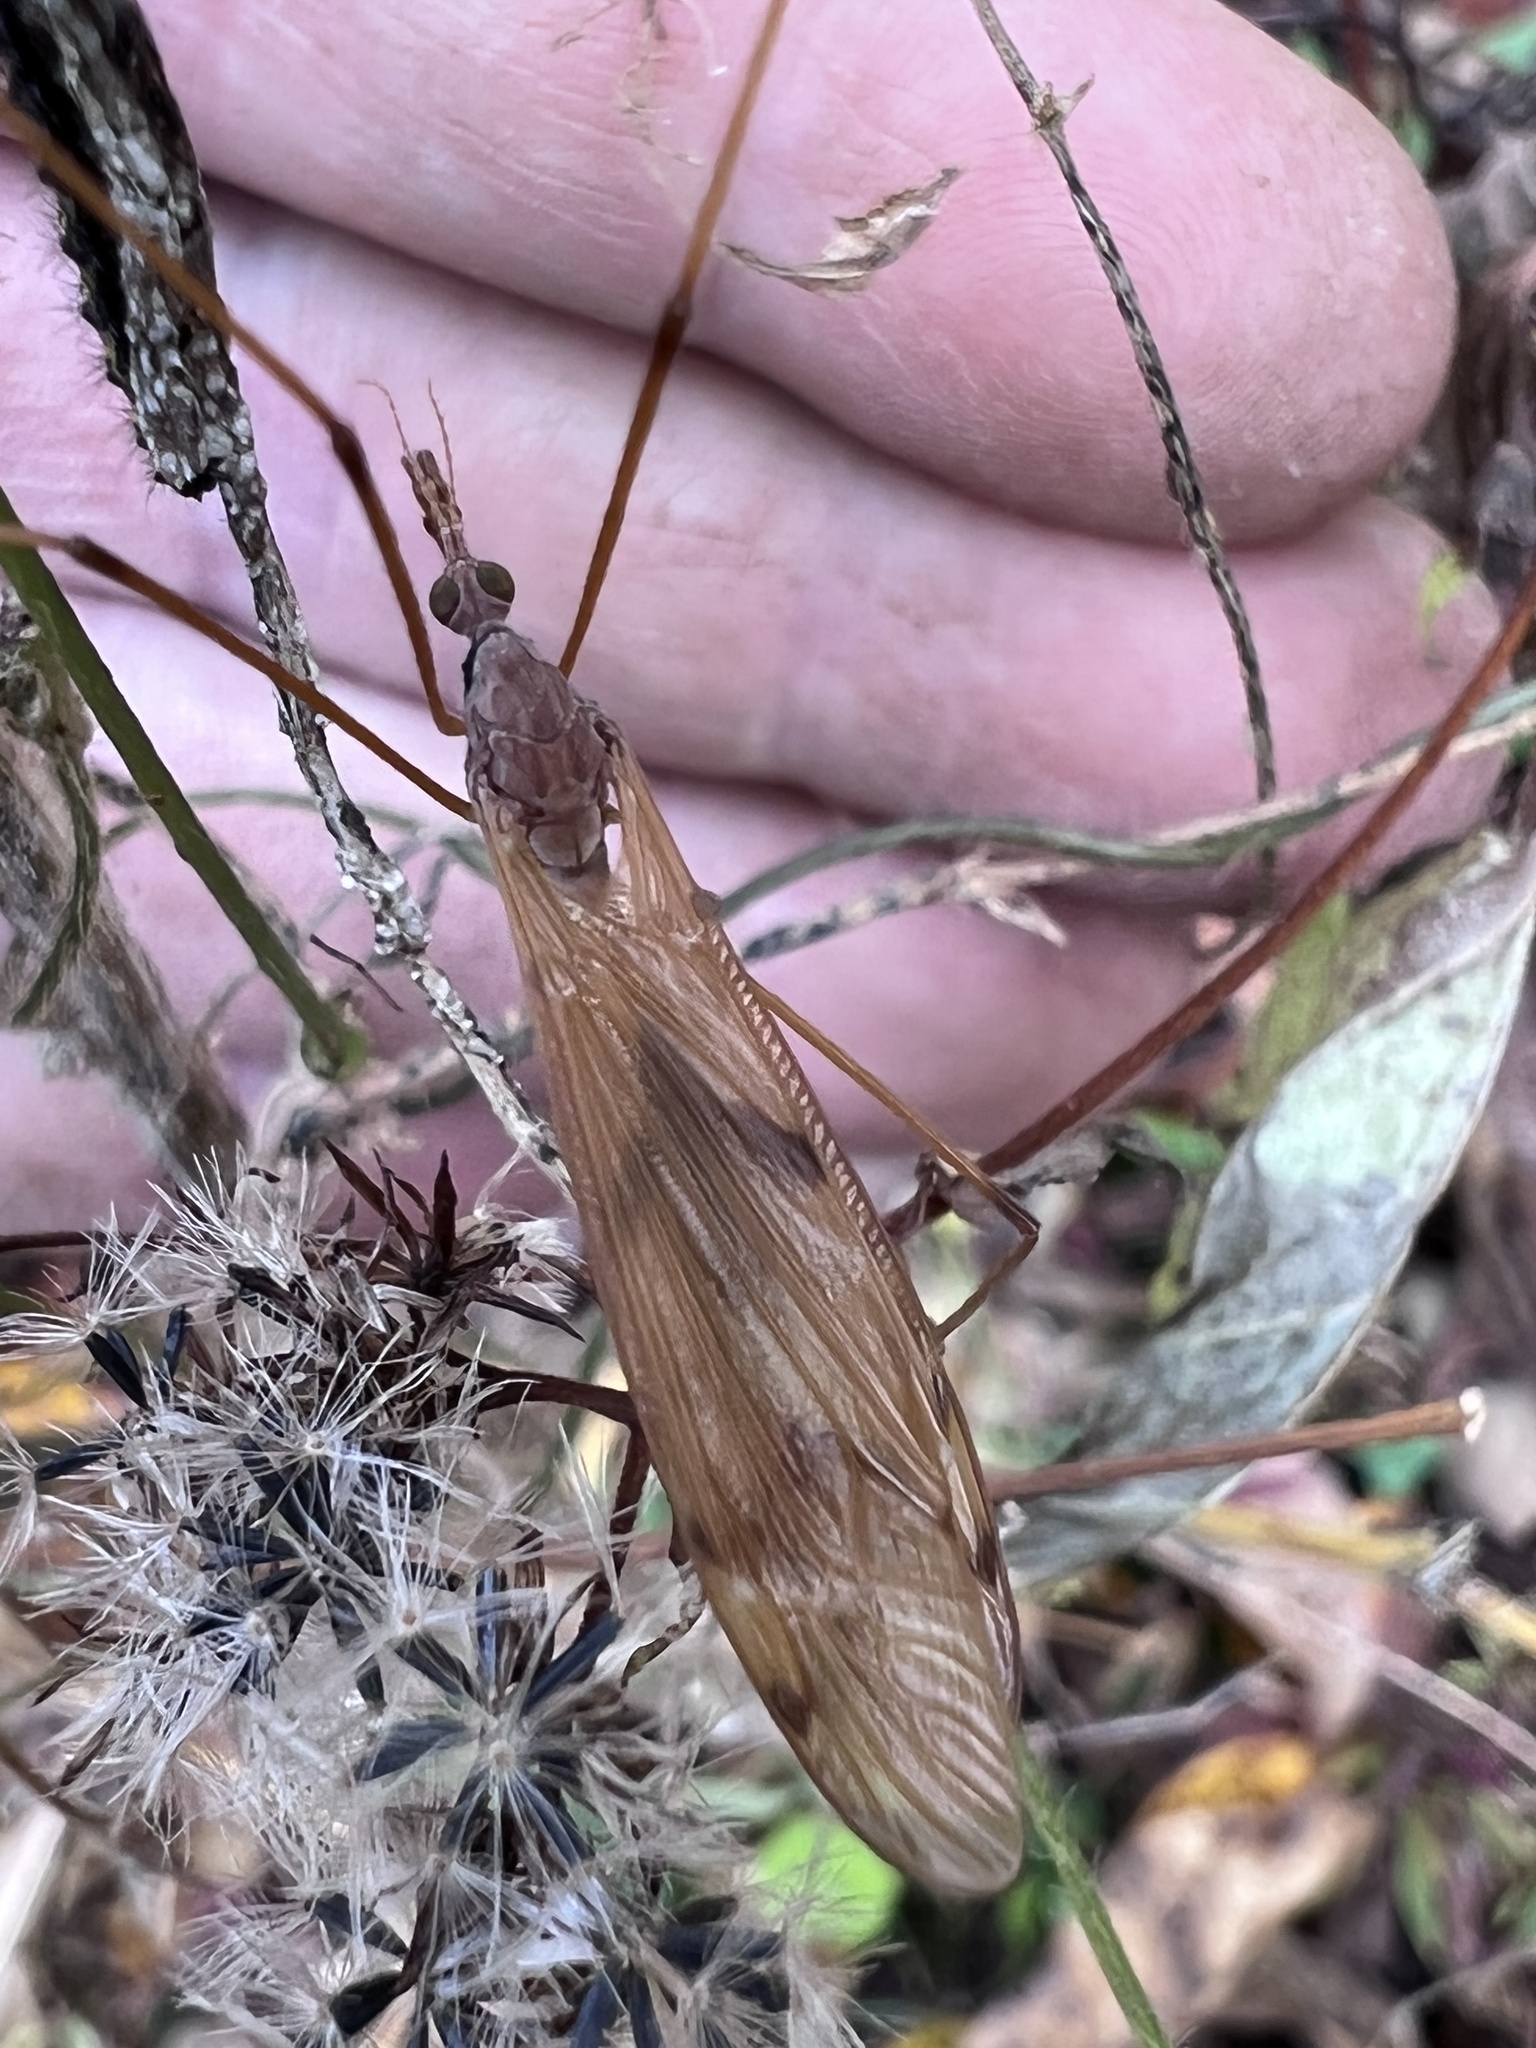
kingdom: Animalia
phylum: Arthropoda
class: Insecta
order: Diptera
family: Tipulidae
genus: Tipula
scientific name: Tipula
